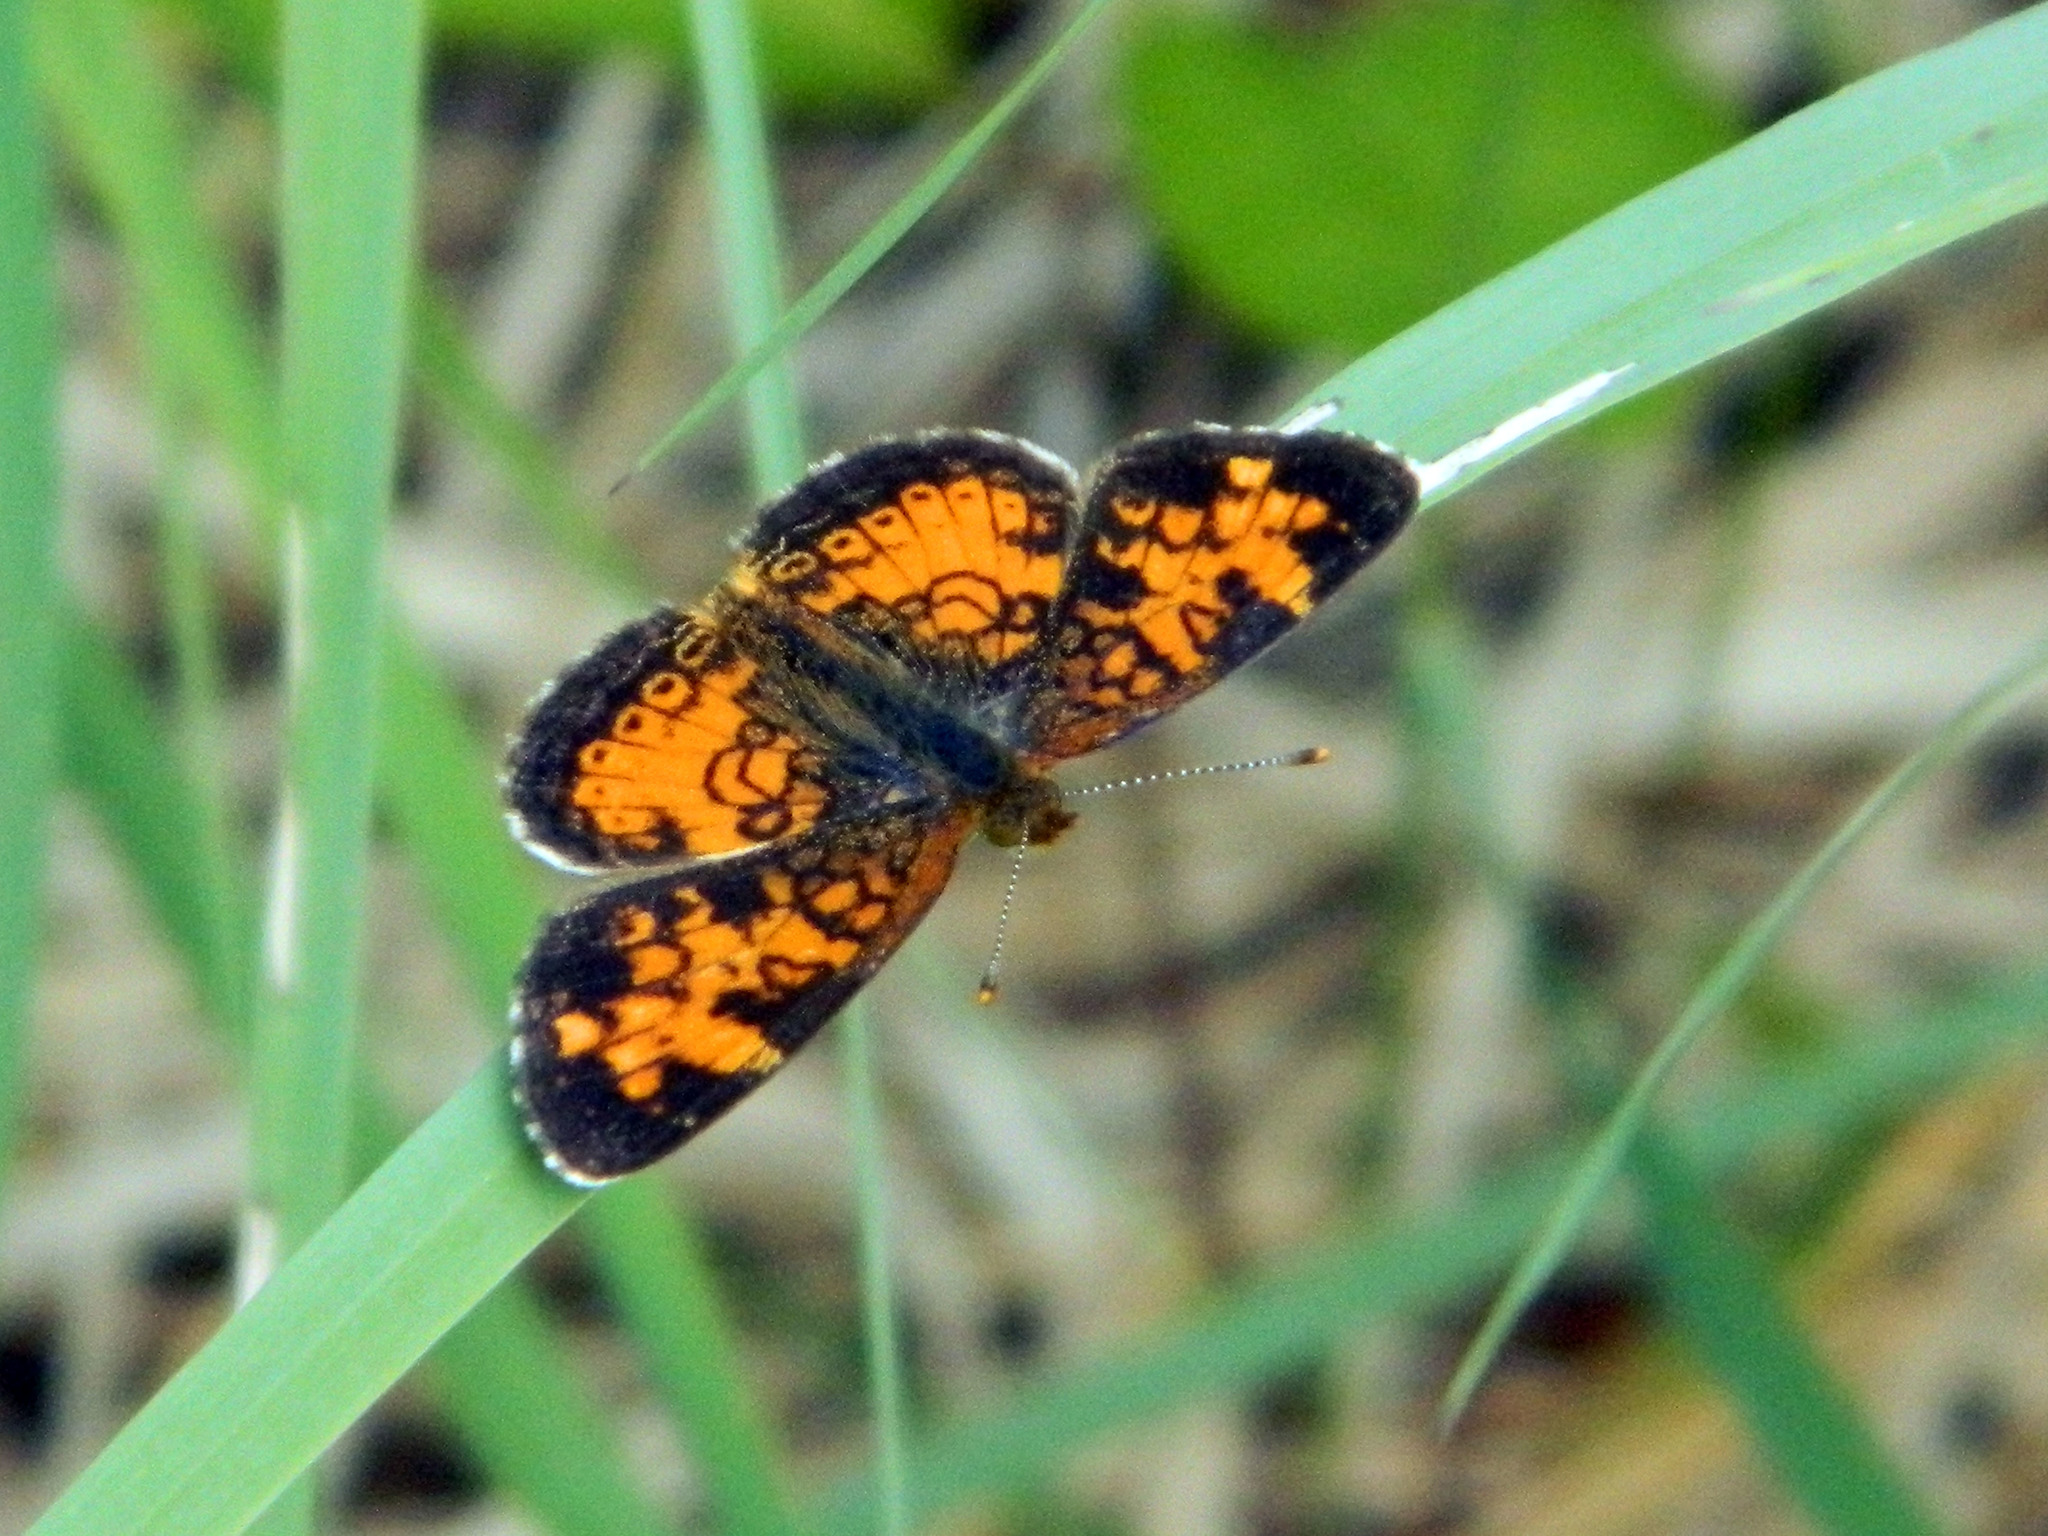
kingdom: Animalia
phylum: Arthropoda
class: Insecta
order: Lepidoptera
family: Nymphalidae
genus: Phyciodes
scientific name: Phyciodes tharos
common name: Pearl crescent
